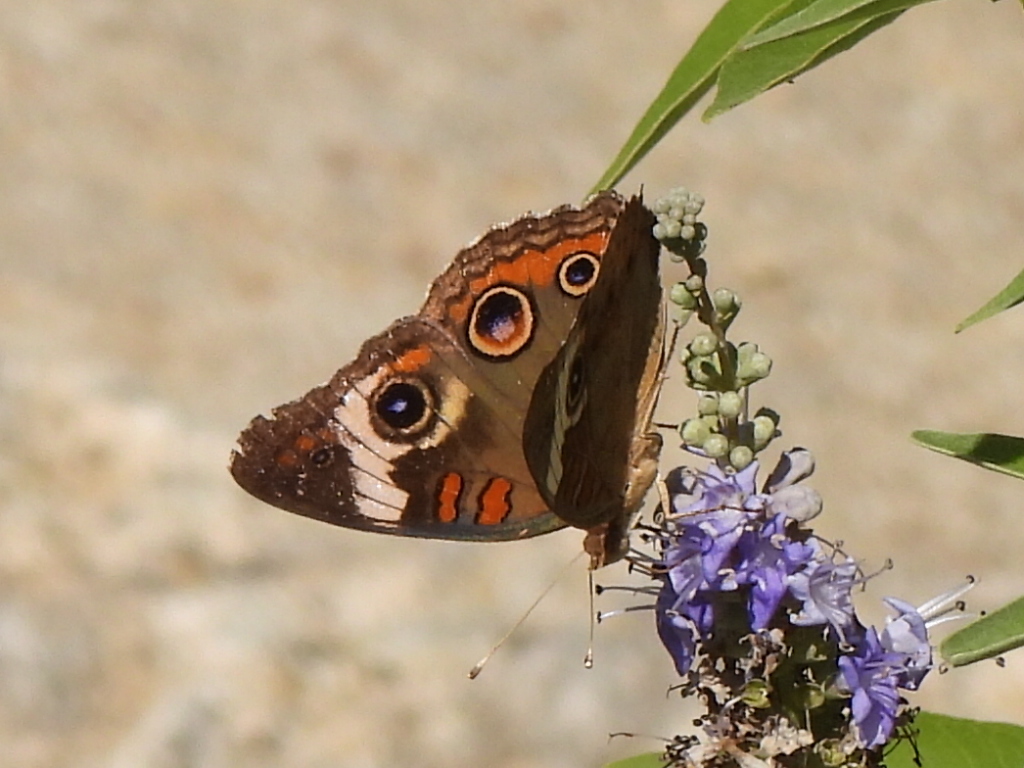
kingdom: Animalia
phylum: Arthropoda
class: Insecta
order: Lepidoptera
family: Nymphalidae
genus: Junonia
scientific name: Junonia coenia
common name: Common buckeye
